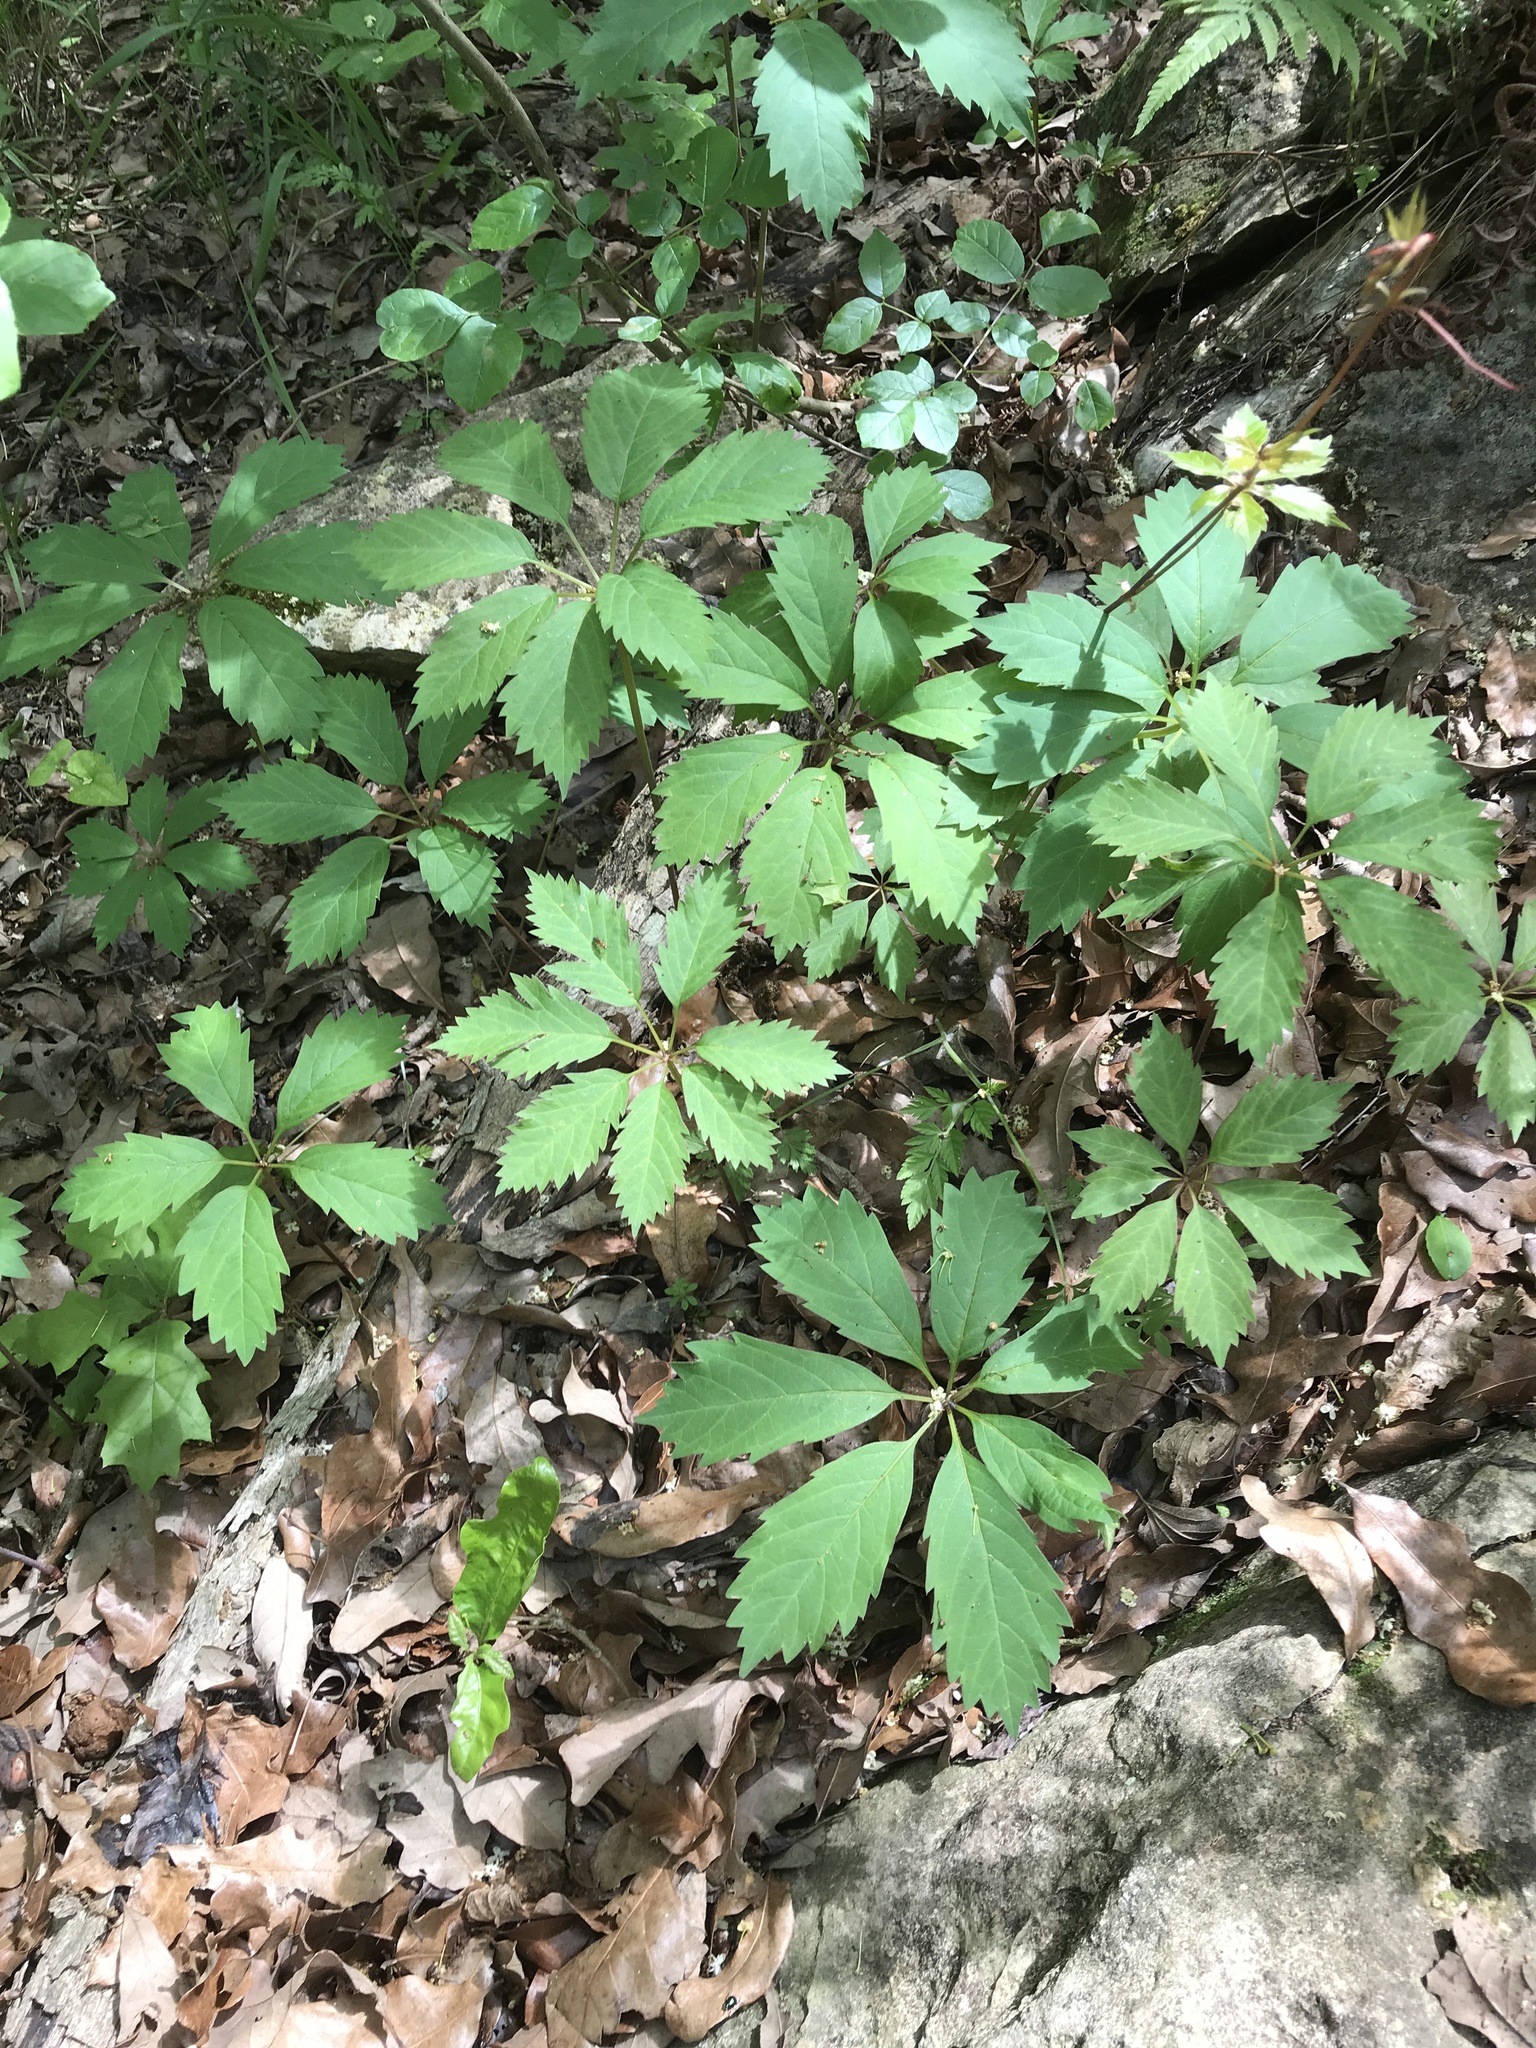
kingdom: Plantae
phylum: Tracheophyta
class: Magnoliopsida
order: Vitales
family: Vitaceae
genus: Parthenocissus
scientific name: Parthenocissus heptaphylla
